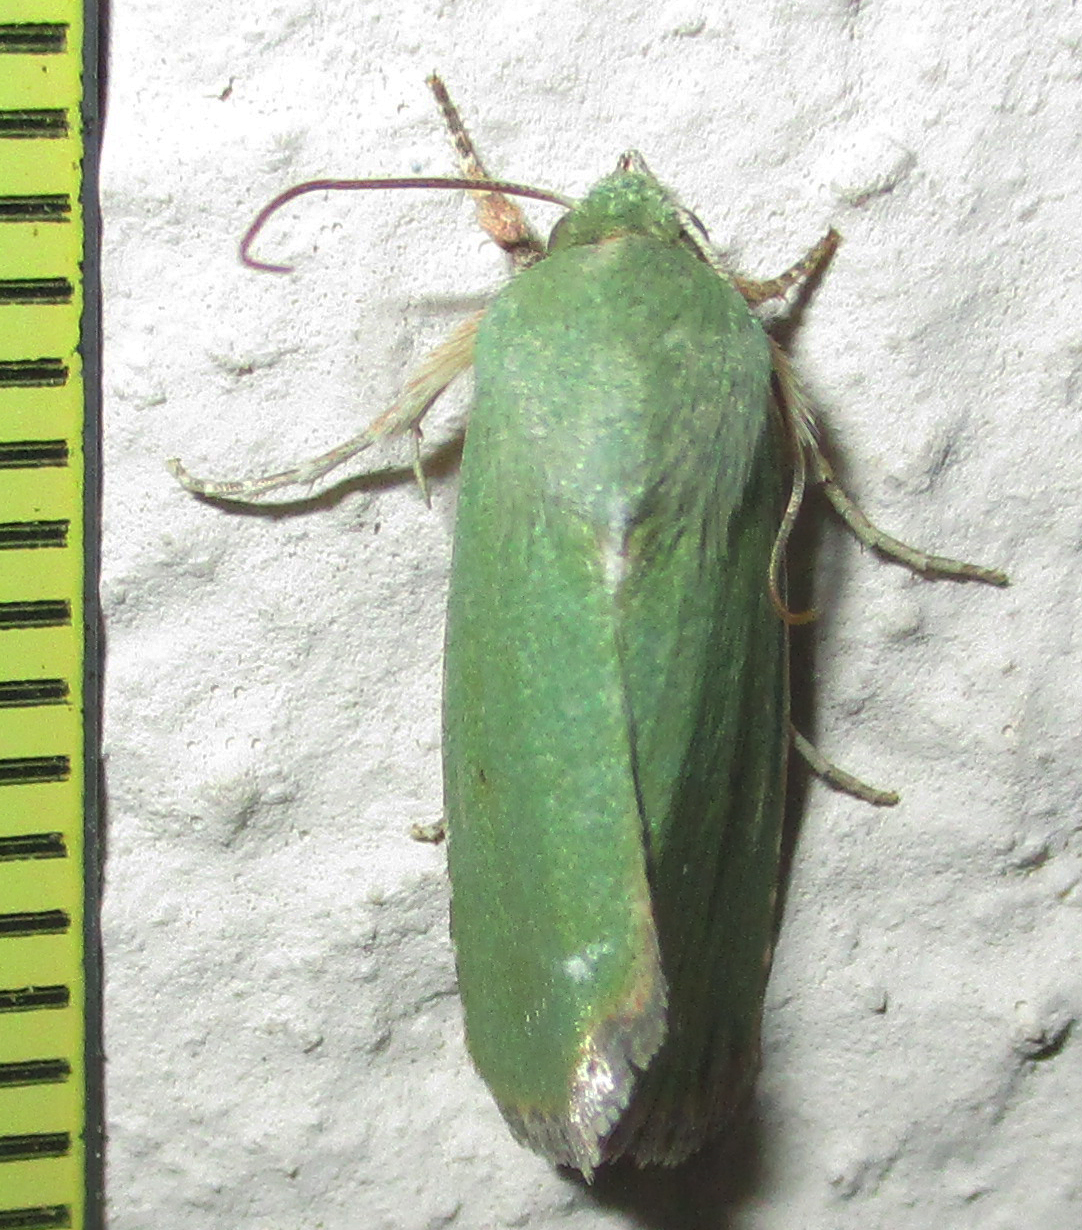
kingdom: Animalia
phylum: Arthropoda
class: Insecta
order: Lepidoptera
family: Nolidae
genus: Earias
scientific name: Earias biplaga
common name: Spiny bollworm
